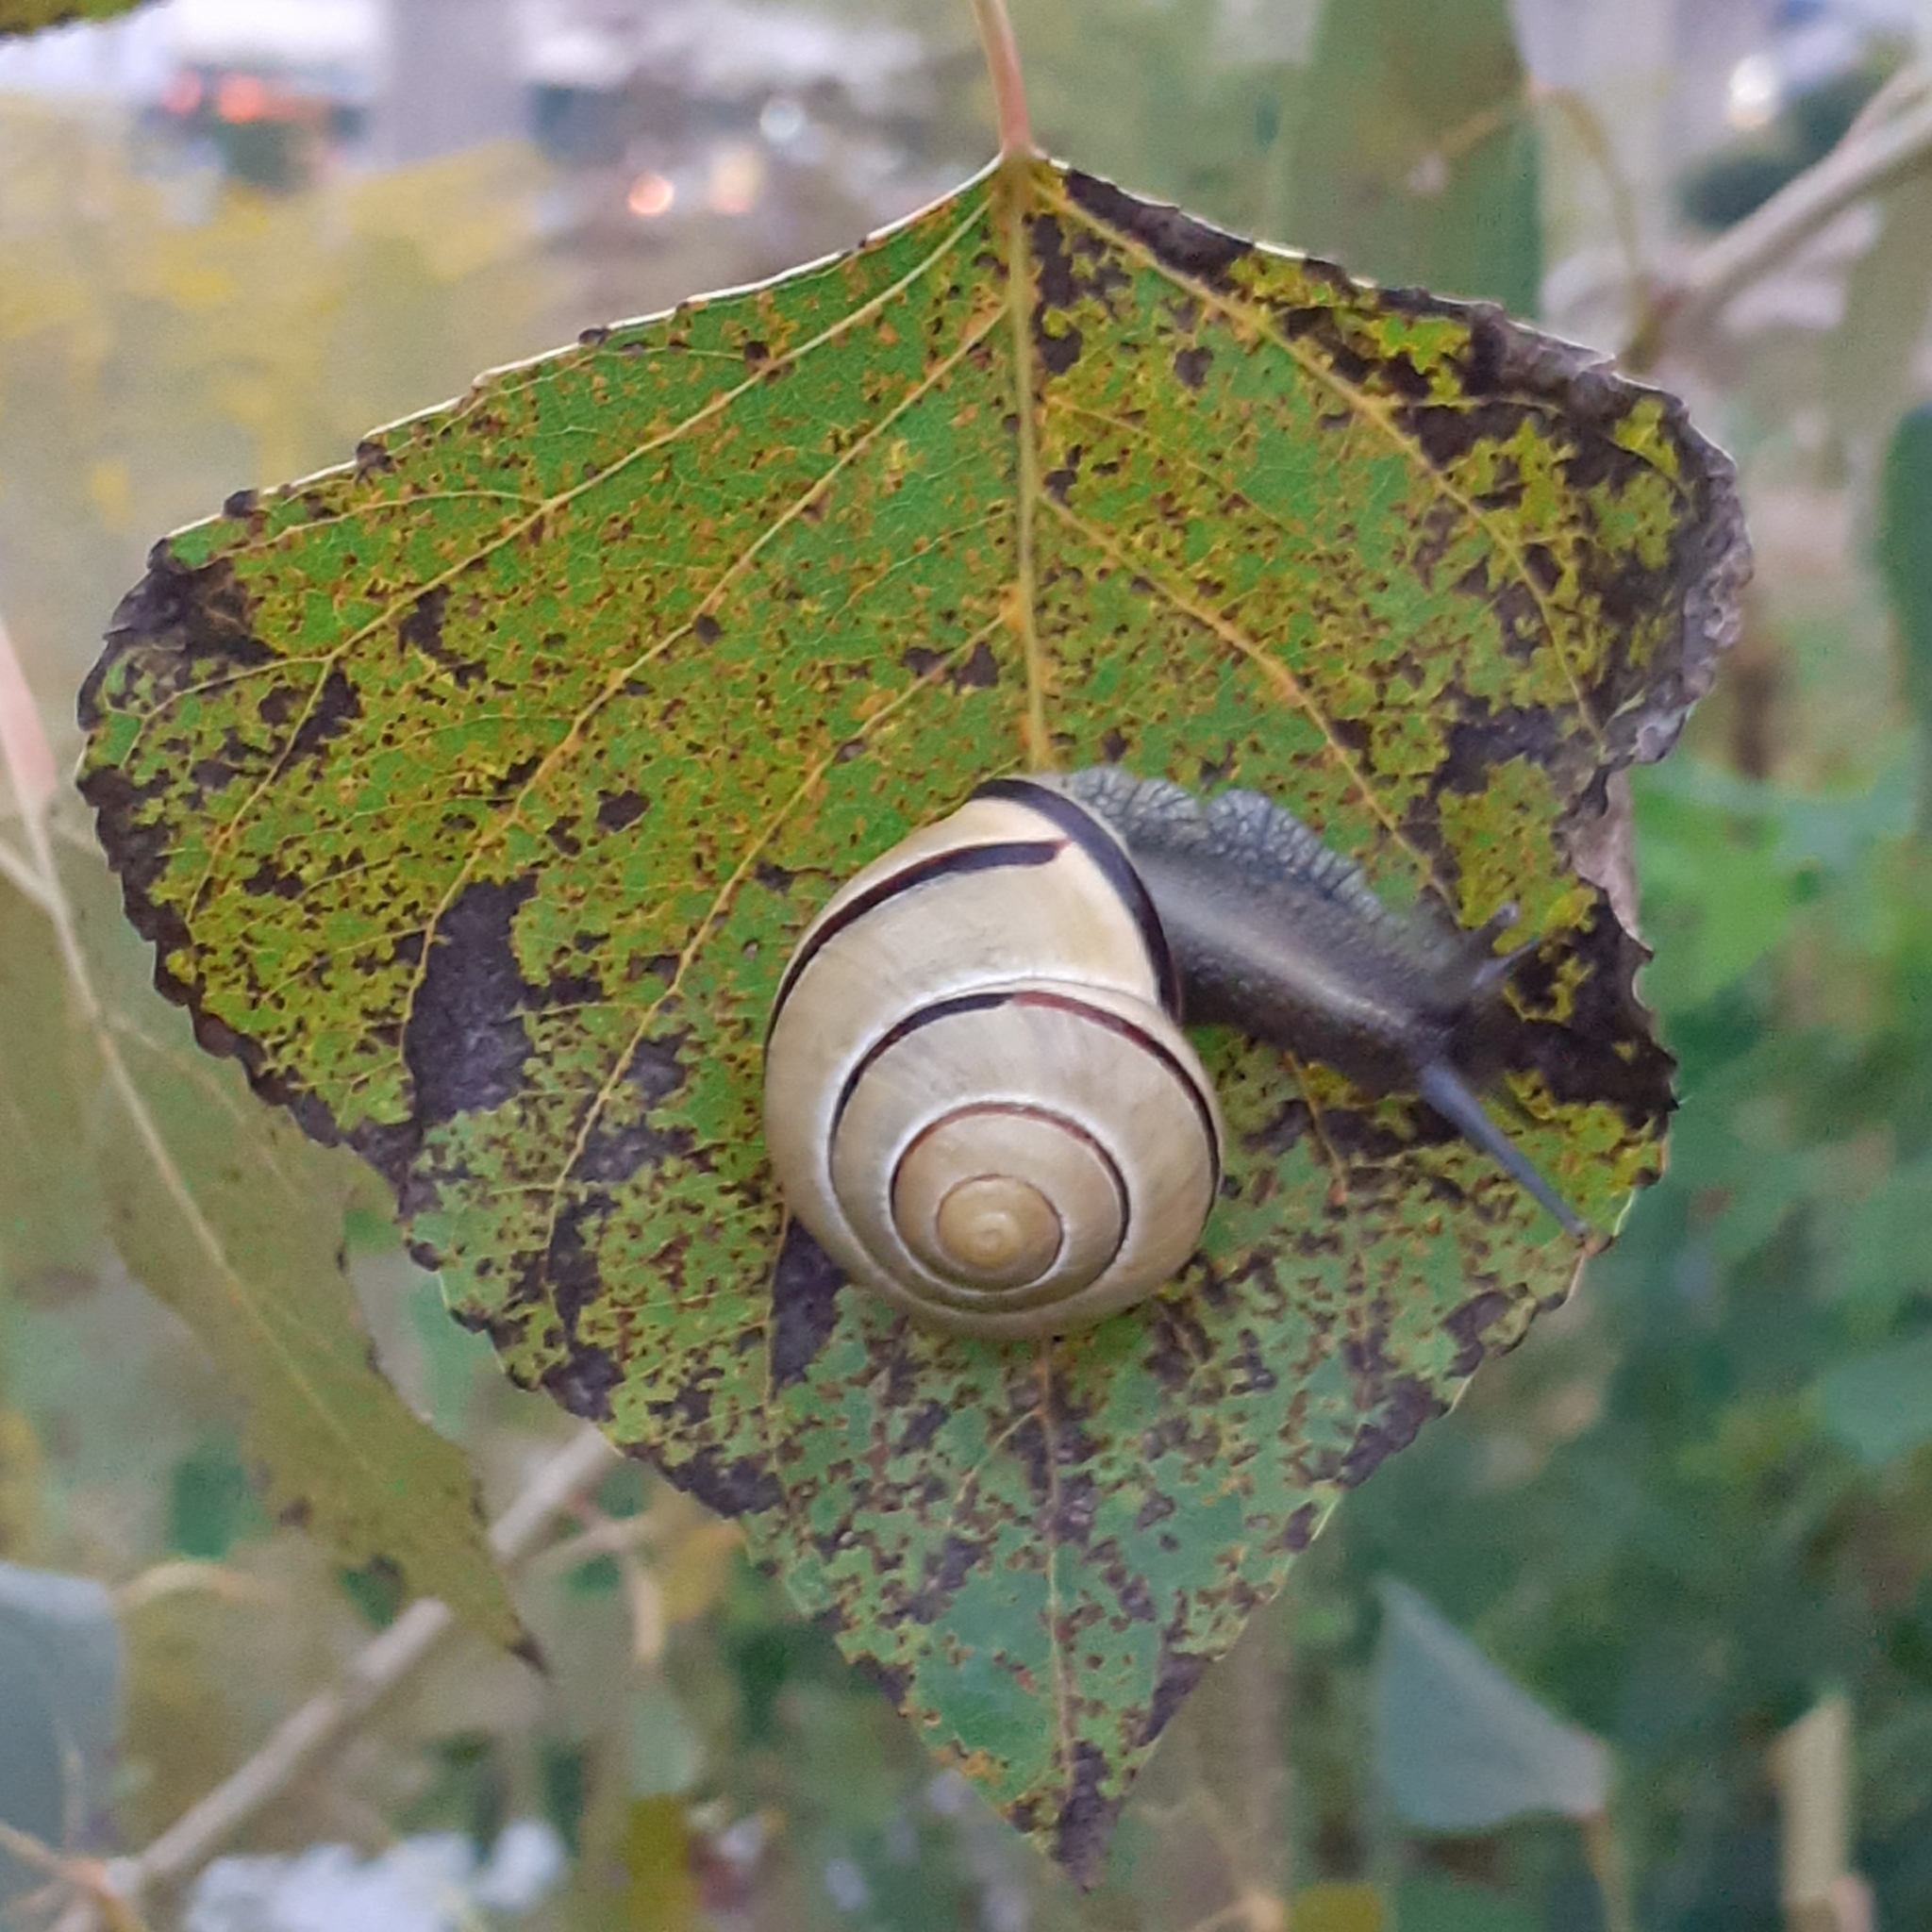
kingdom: Animalia
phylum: Mollusca
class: Gastropoda
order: Stylommatophora
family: Helicidae
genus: Cepaea
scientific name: Cepaea nemoralis
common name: Grovesnail
